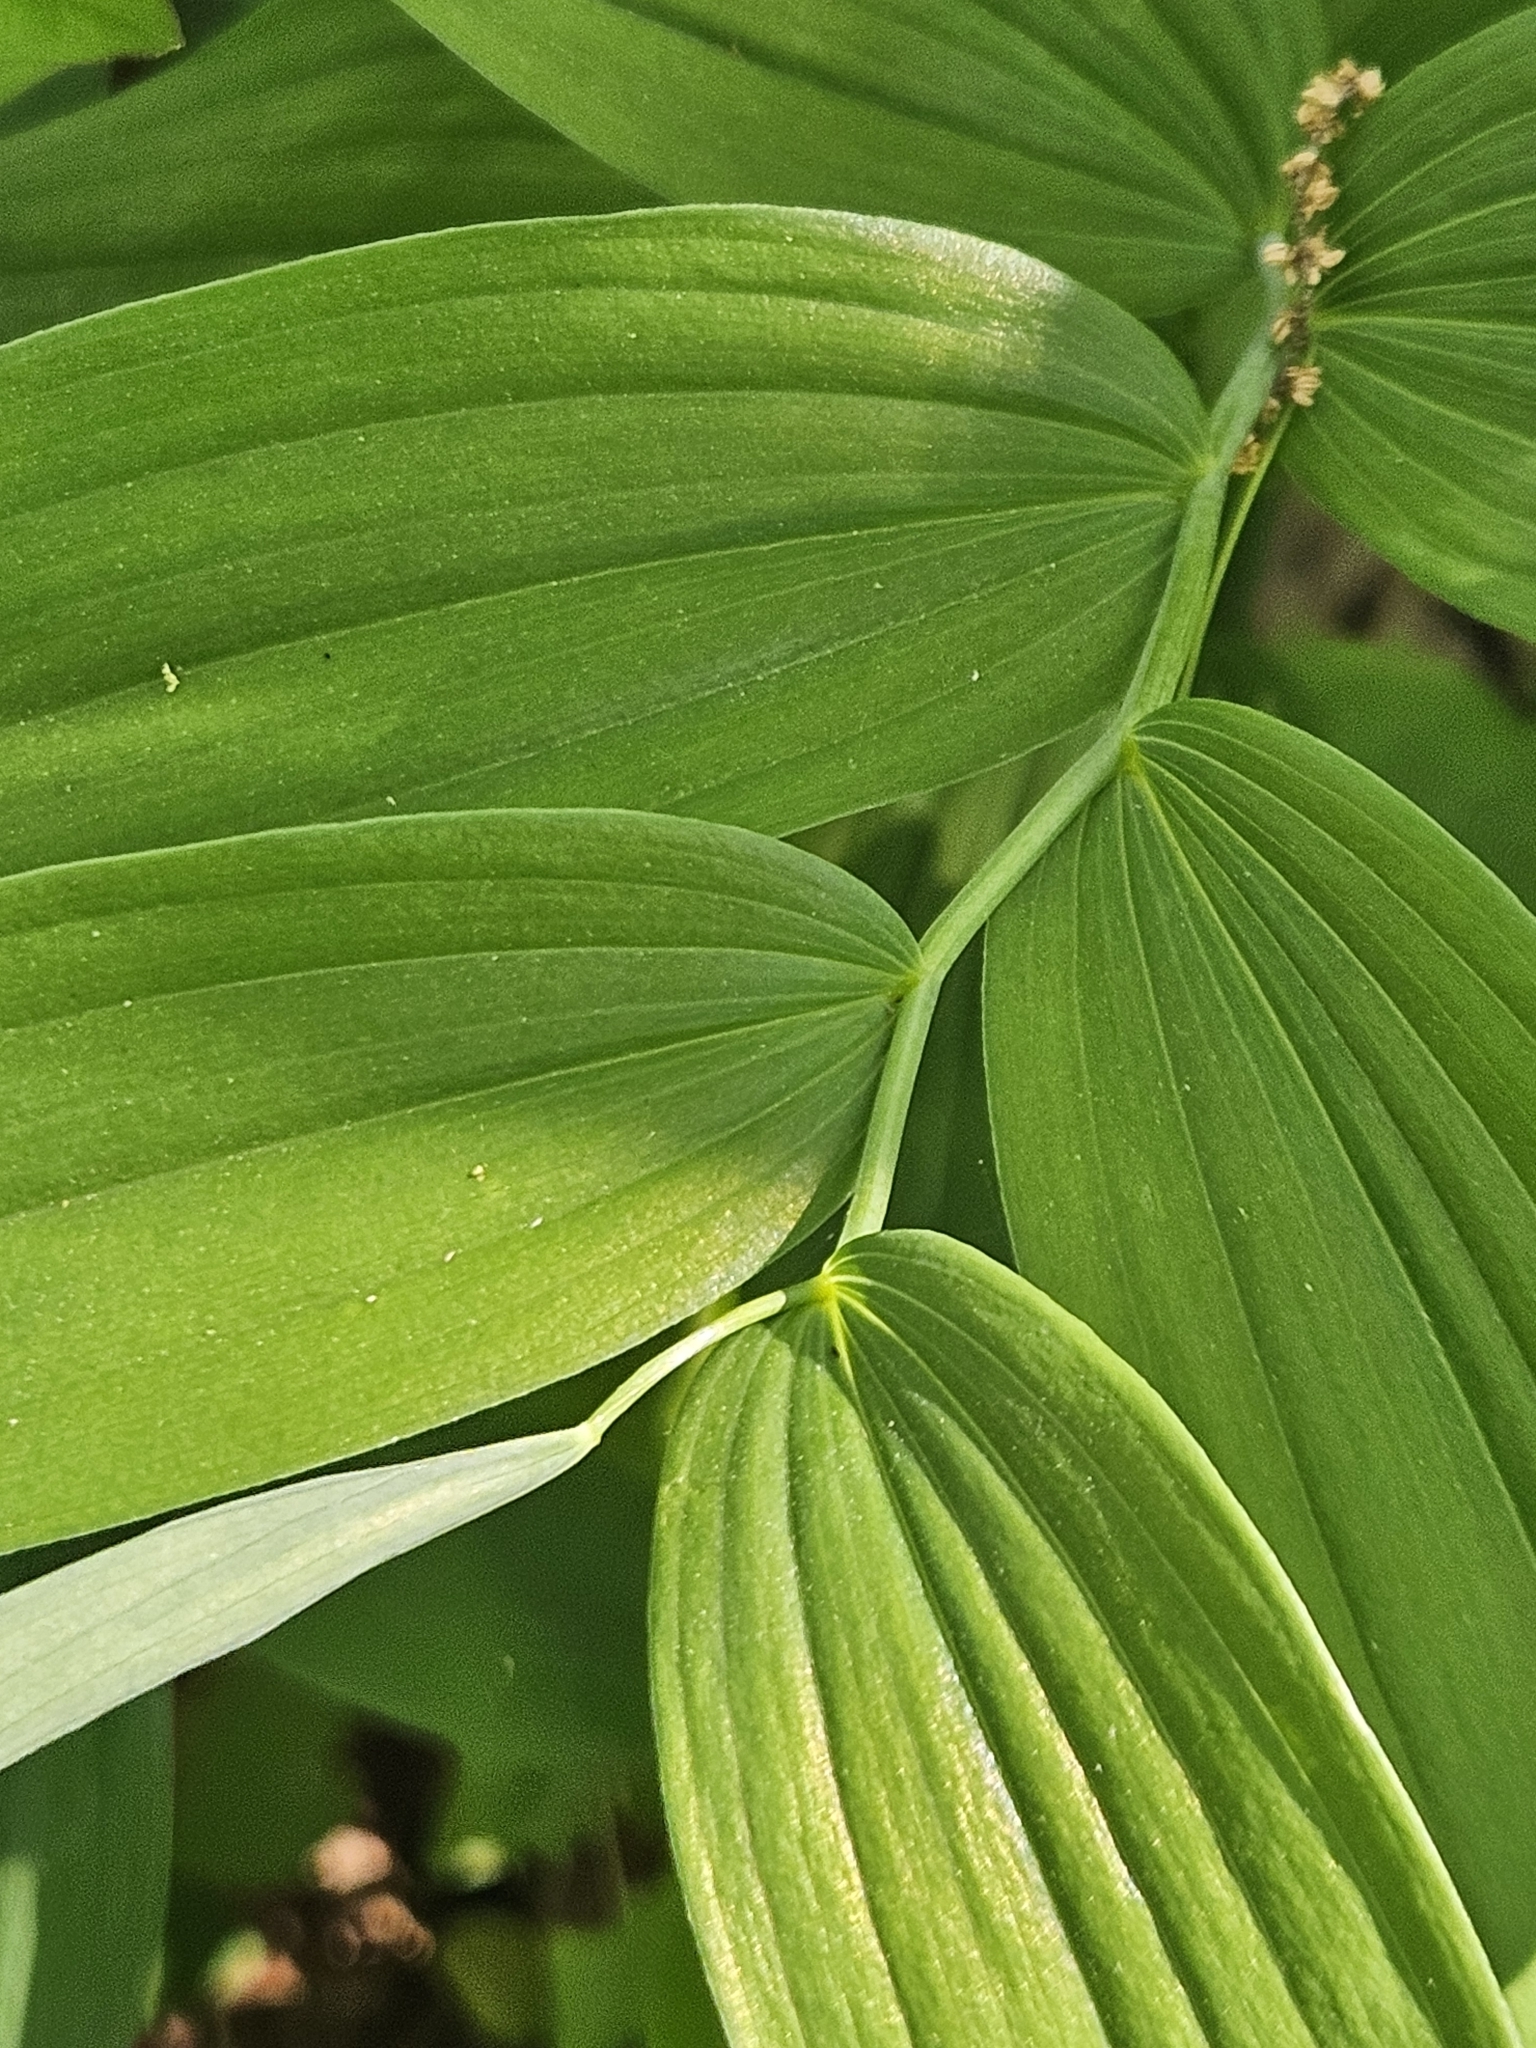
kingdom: Plantae
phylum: Tracheophyta
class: Liliopsida
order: Asparagales
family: Asparagaceae
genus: Polygonatum
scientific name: Polygonatum biflorum
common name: American solomon's-seal
